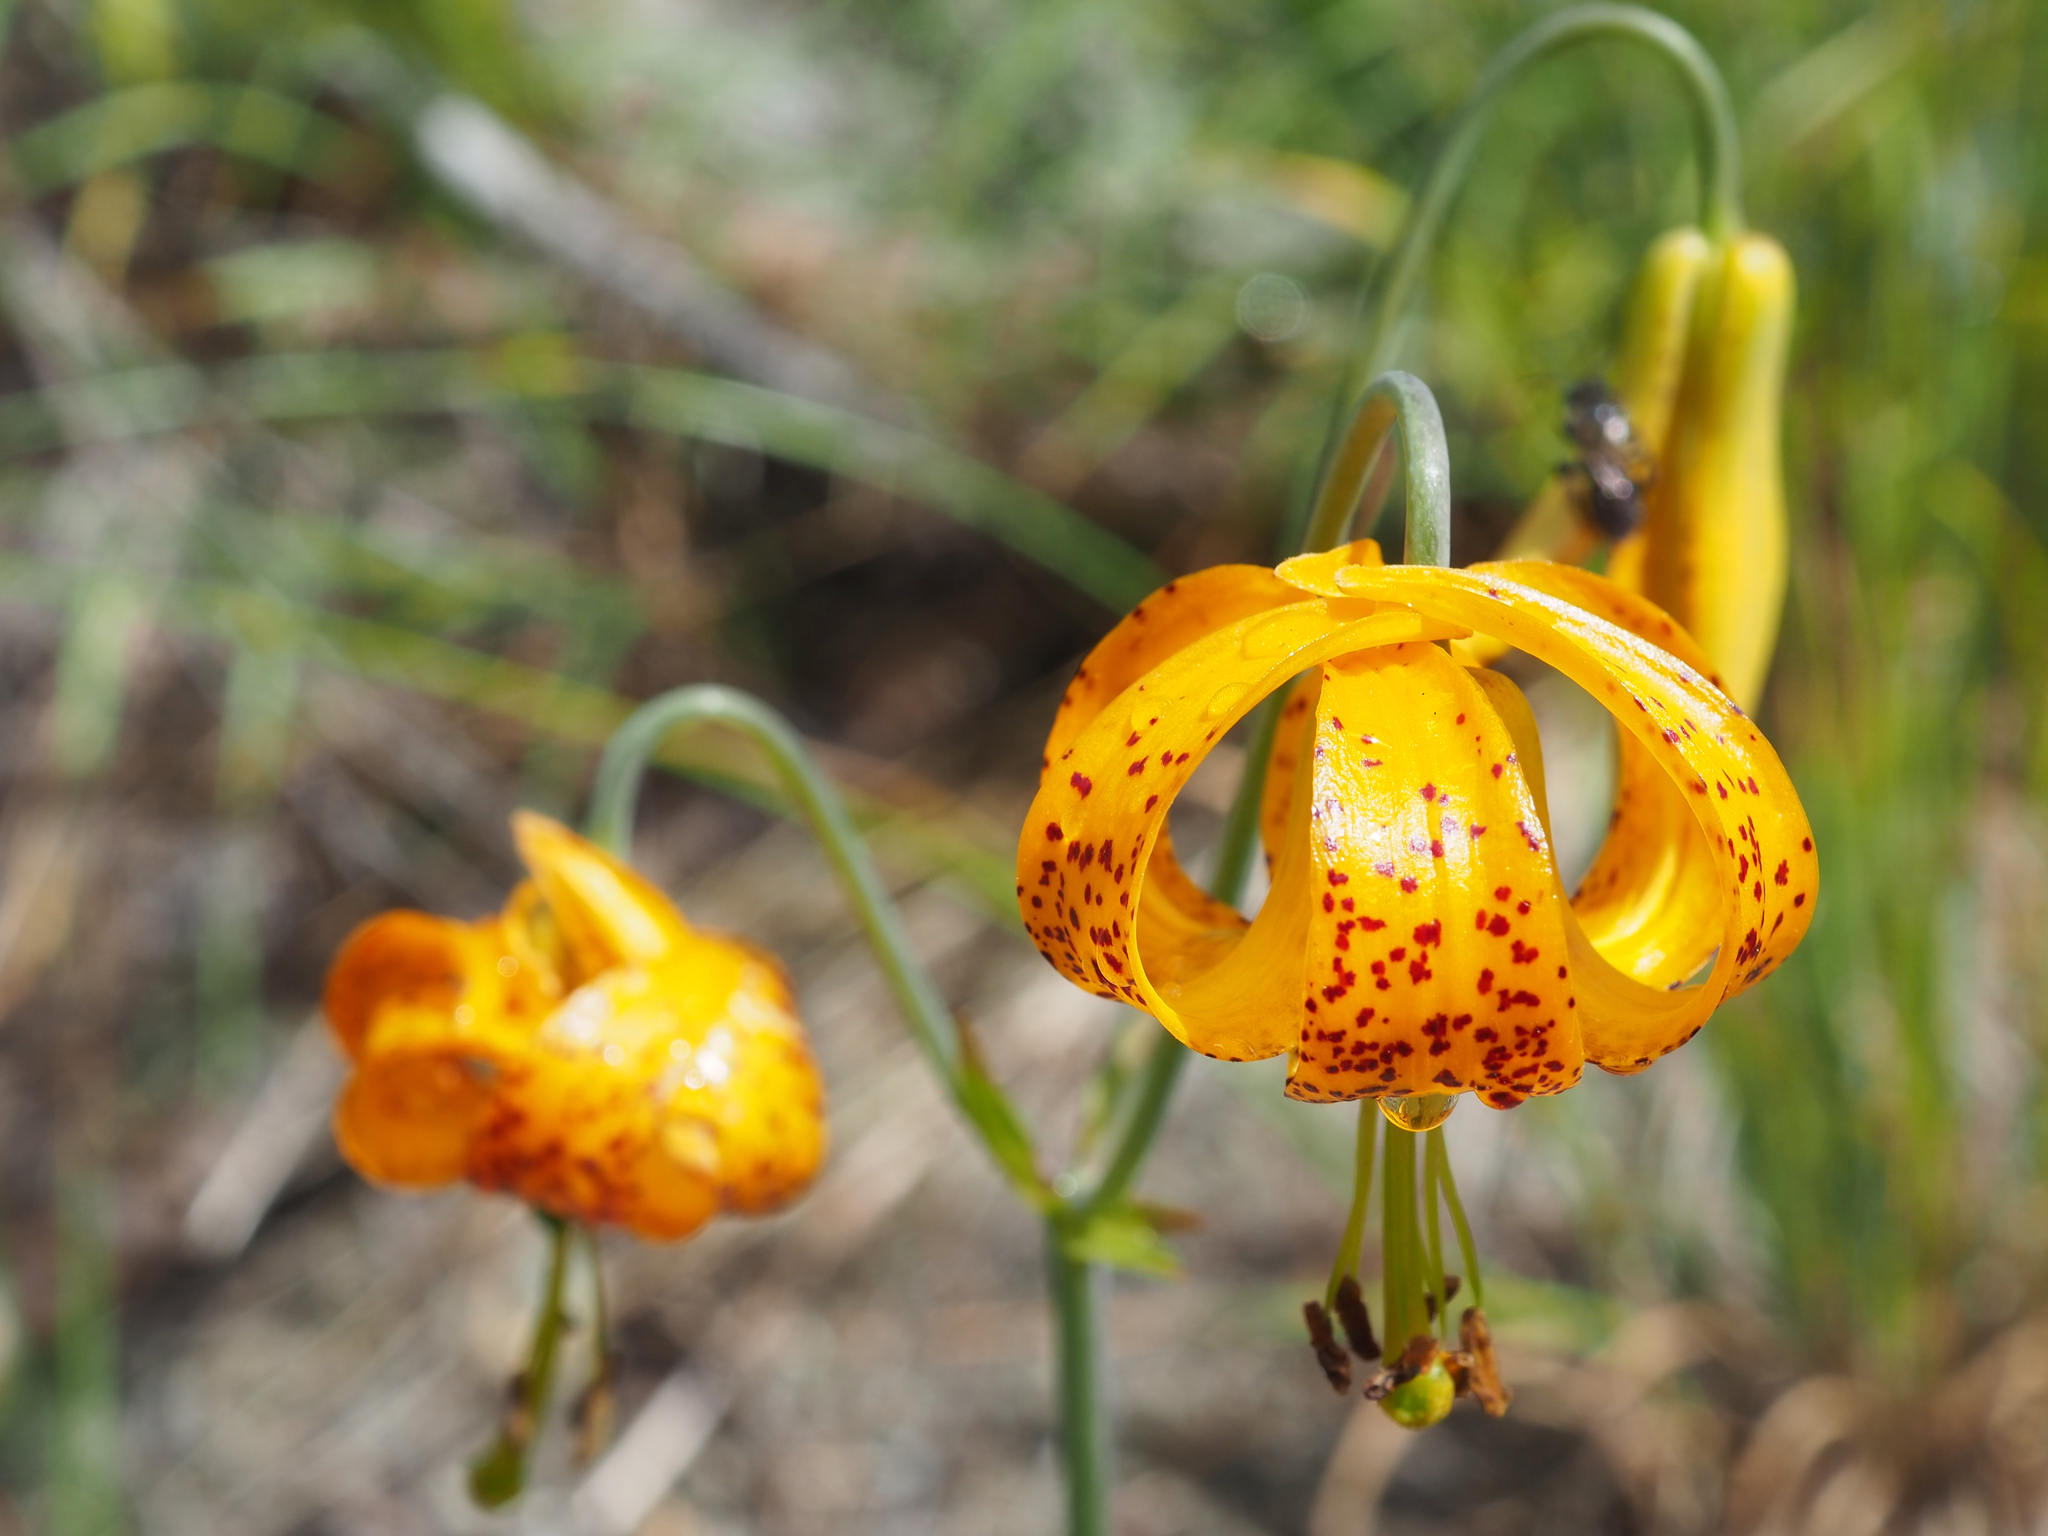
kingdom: Plantae
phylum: Tracheophyta
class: Liliopsida
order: Liliales
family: Liliaceae
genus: Lilium
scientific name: Lilium columbianum
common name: Columbia lily
